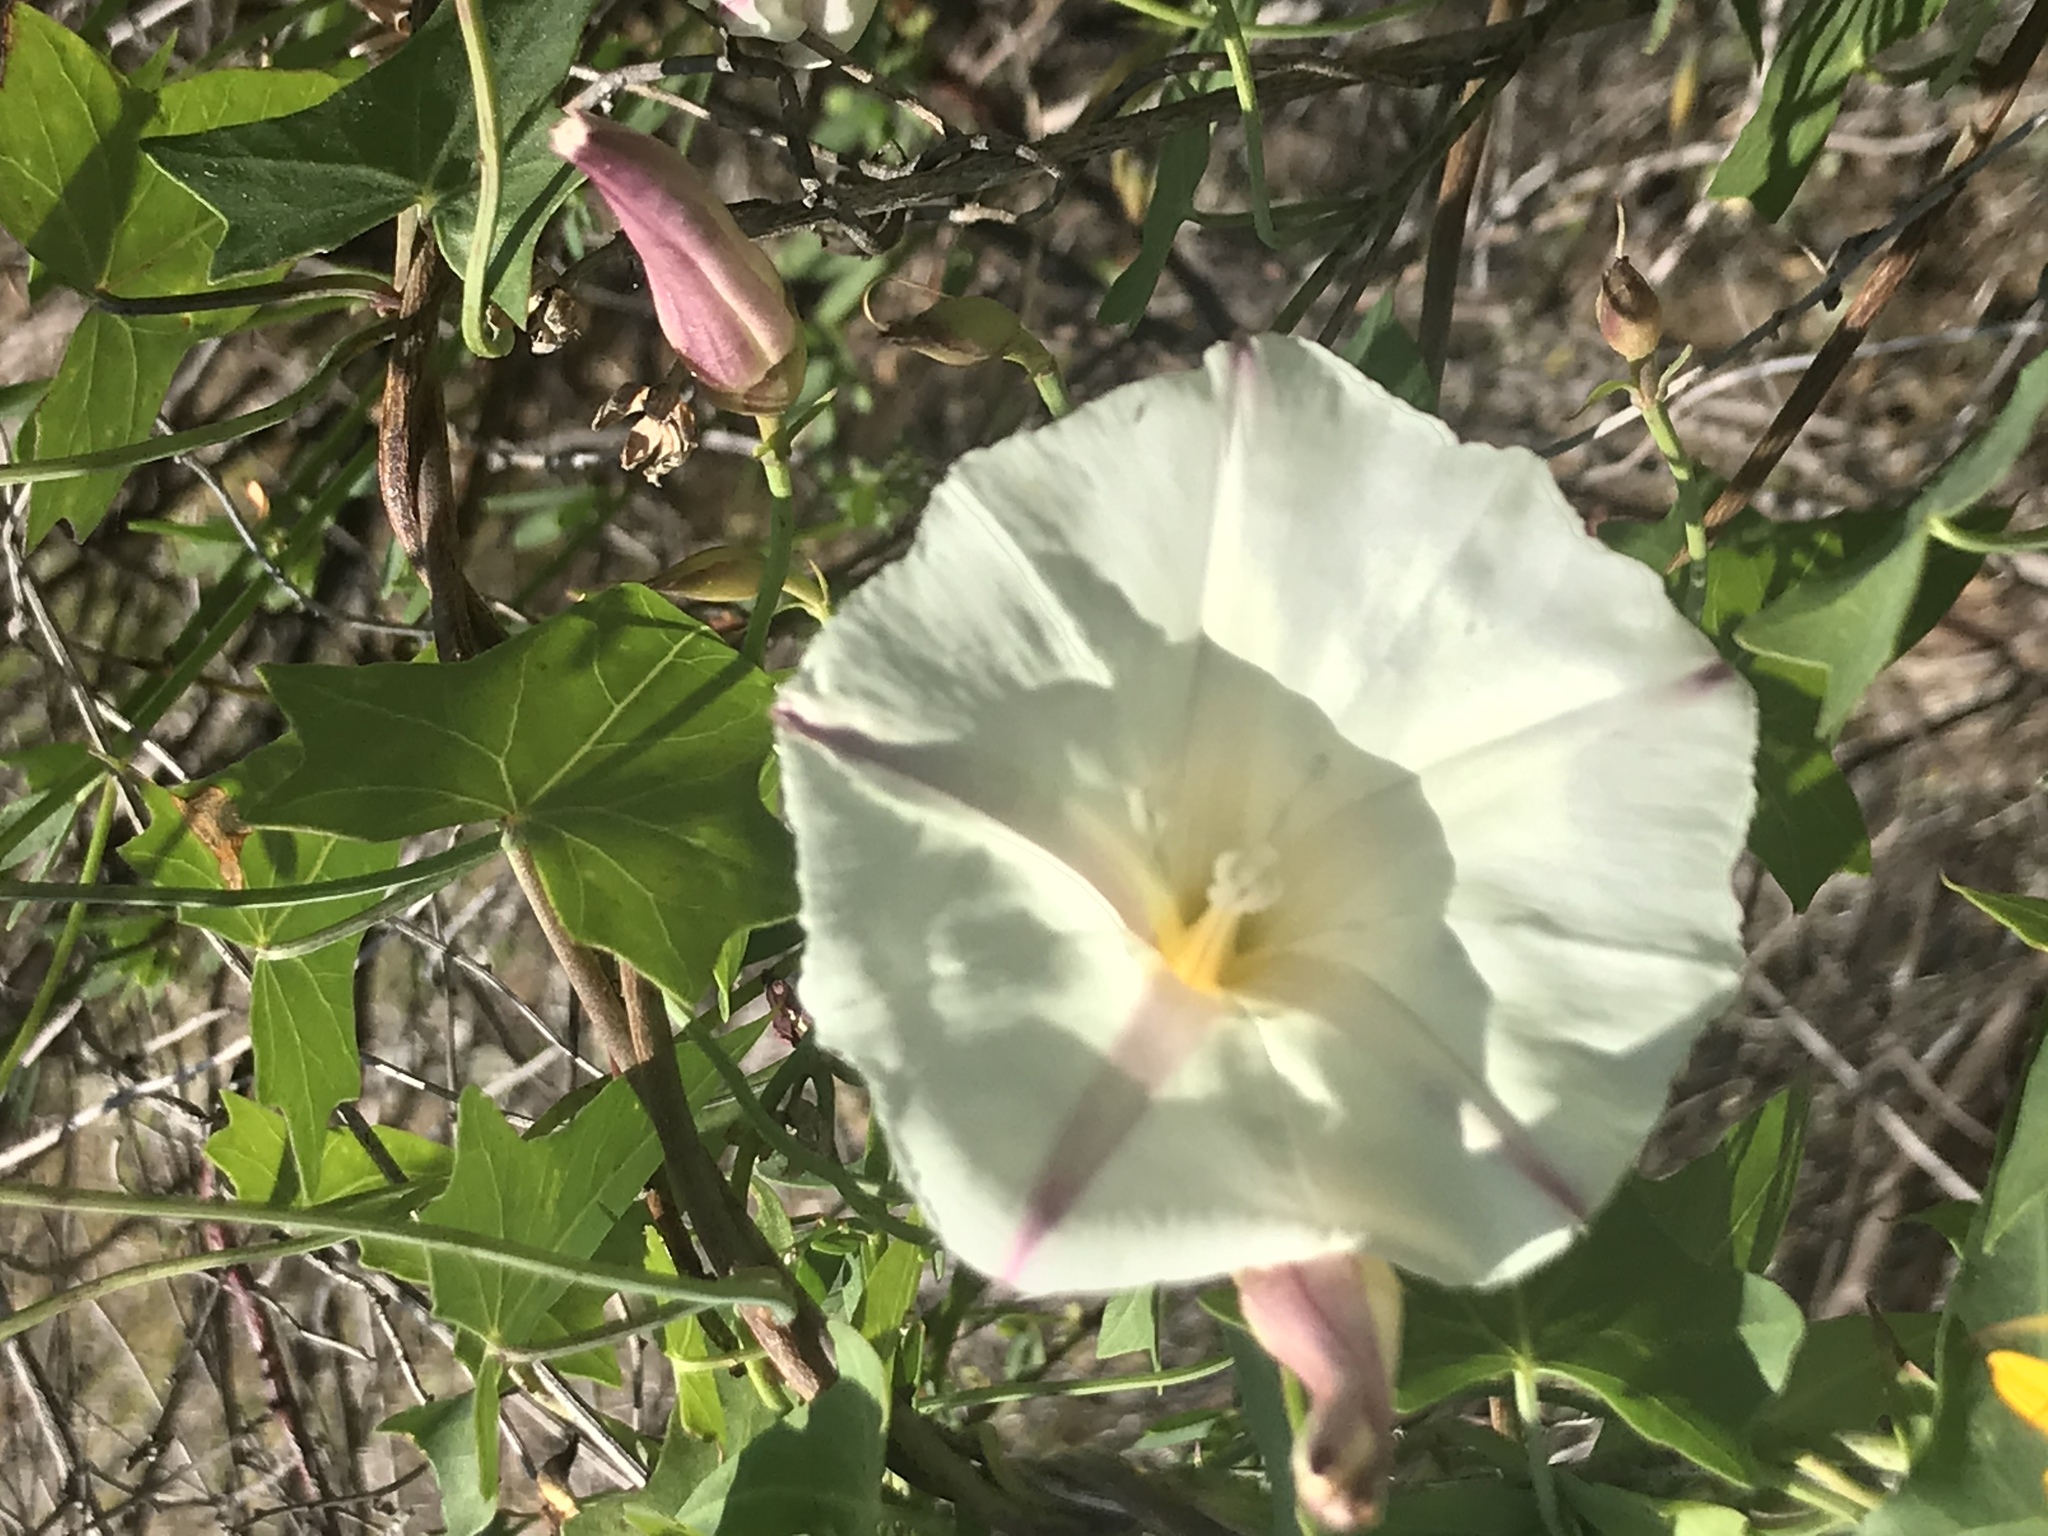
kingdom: Plantae
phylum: Tracheophyta
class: Magnoliopsida
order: Solanales
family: Convolvulaceae
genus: Calystegia
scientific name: Calystegia purpurata
